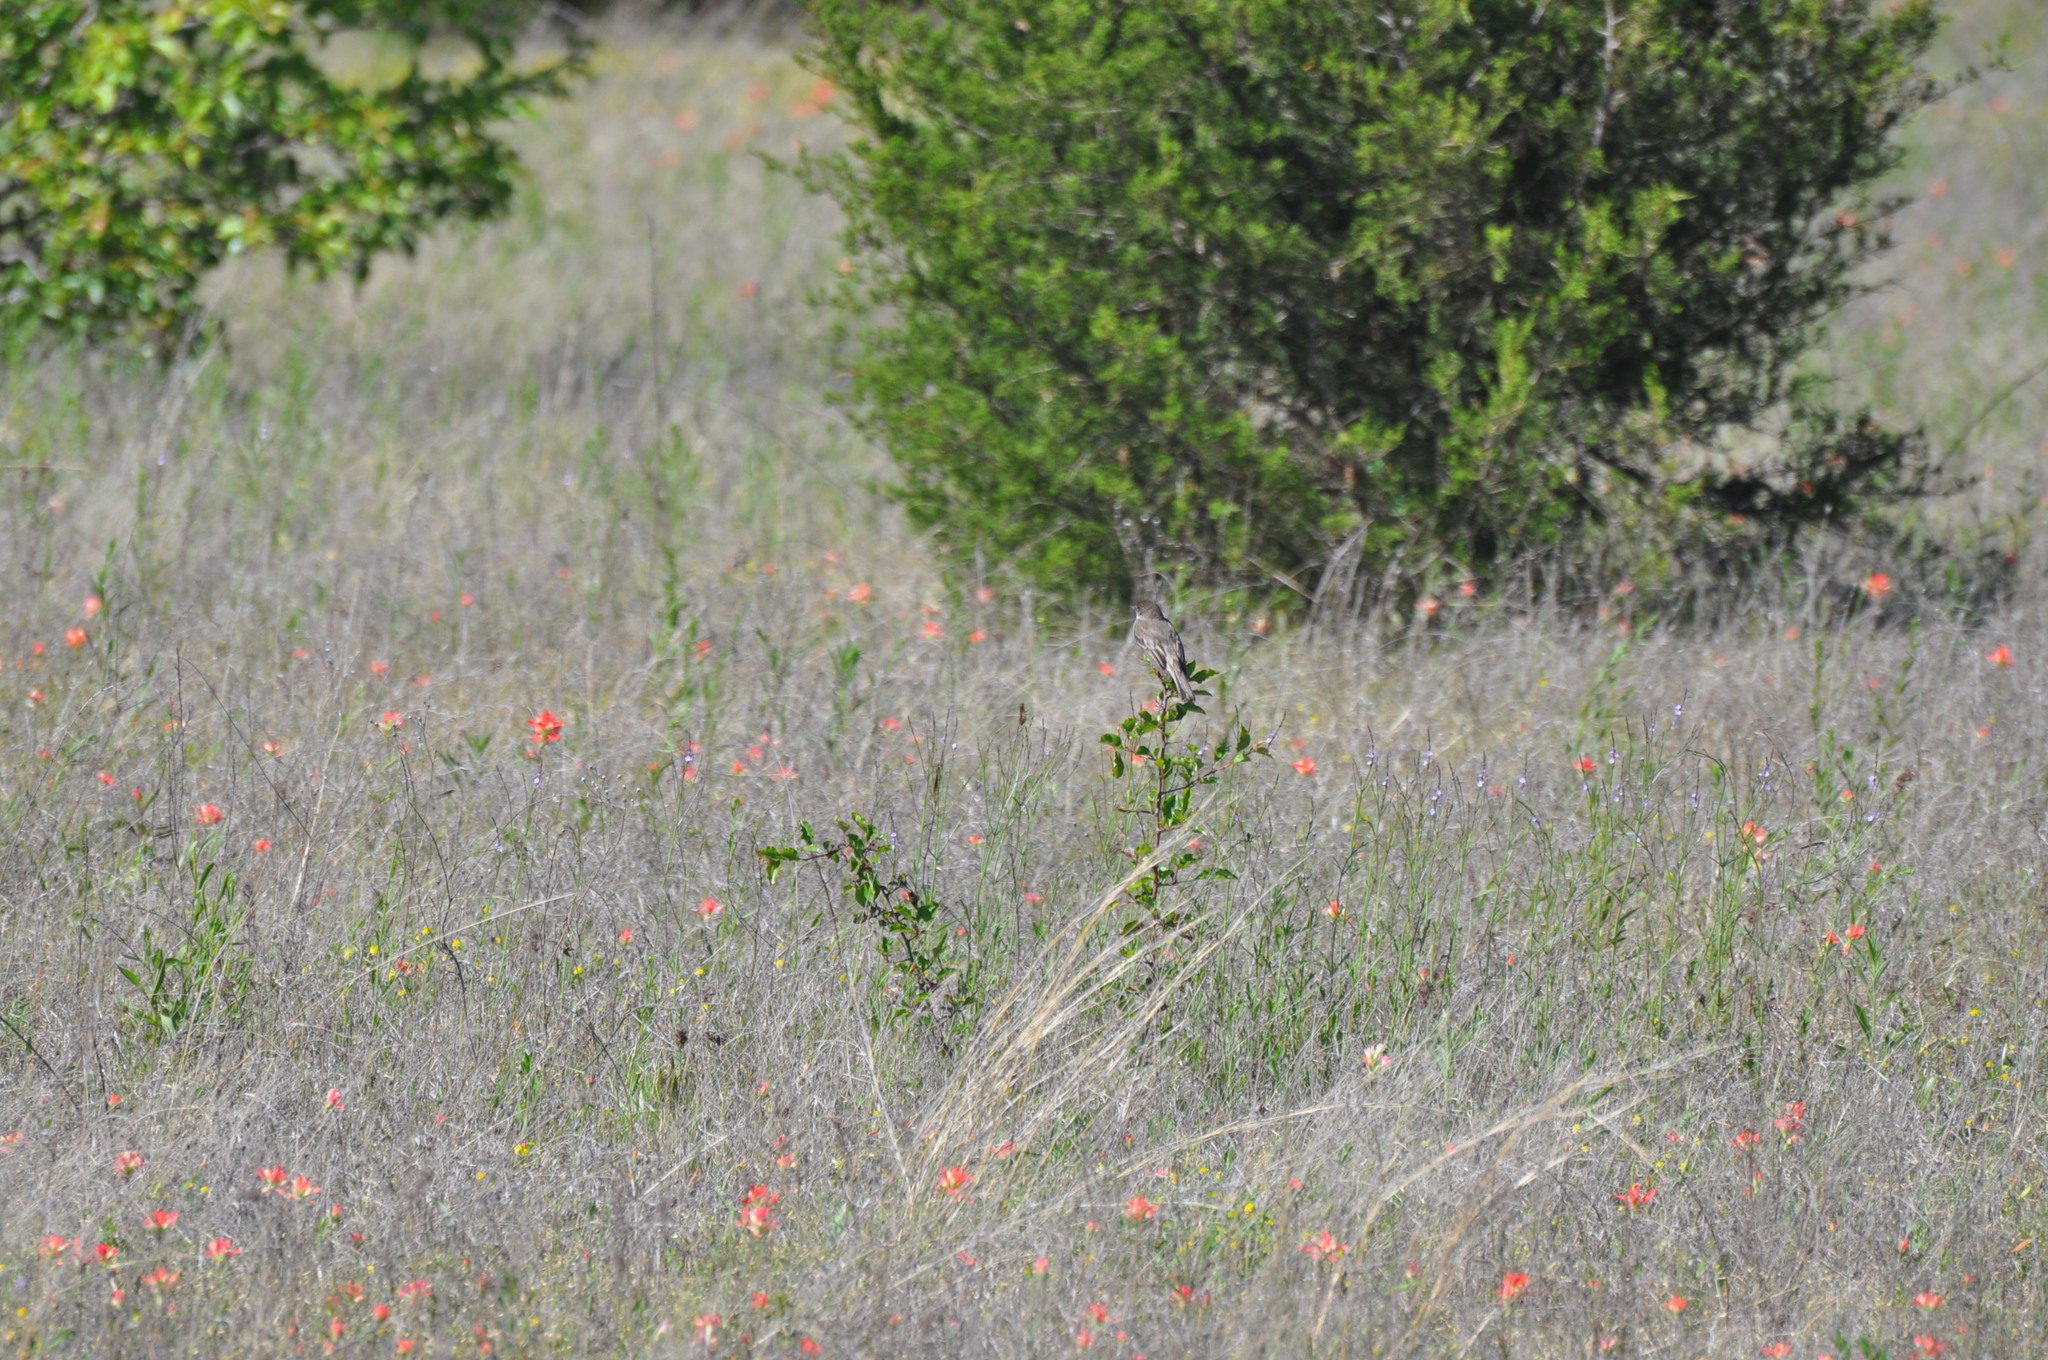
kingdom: Animalia
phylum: Chordata
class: Aves
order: Passeriformes
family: Tyrannidae
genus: Sayornis
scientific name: Sayornis phoebe
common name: Eastern phoebe
